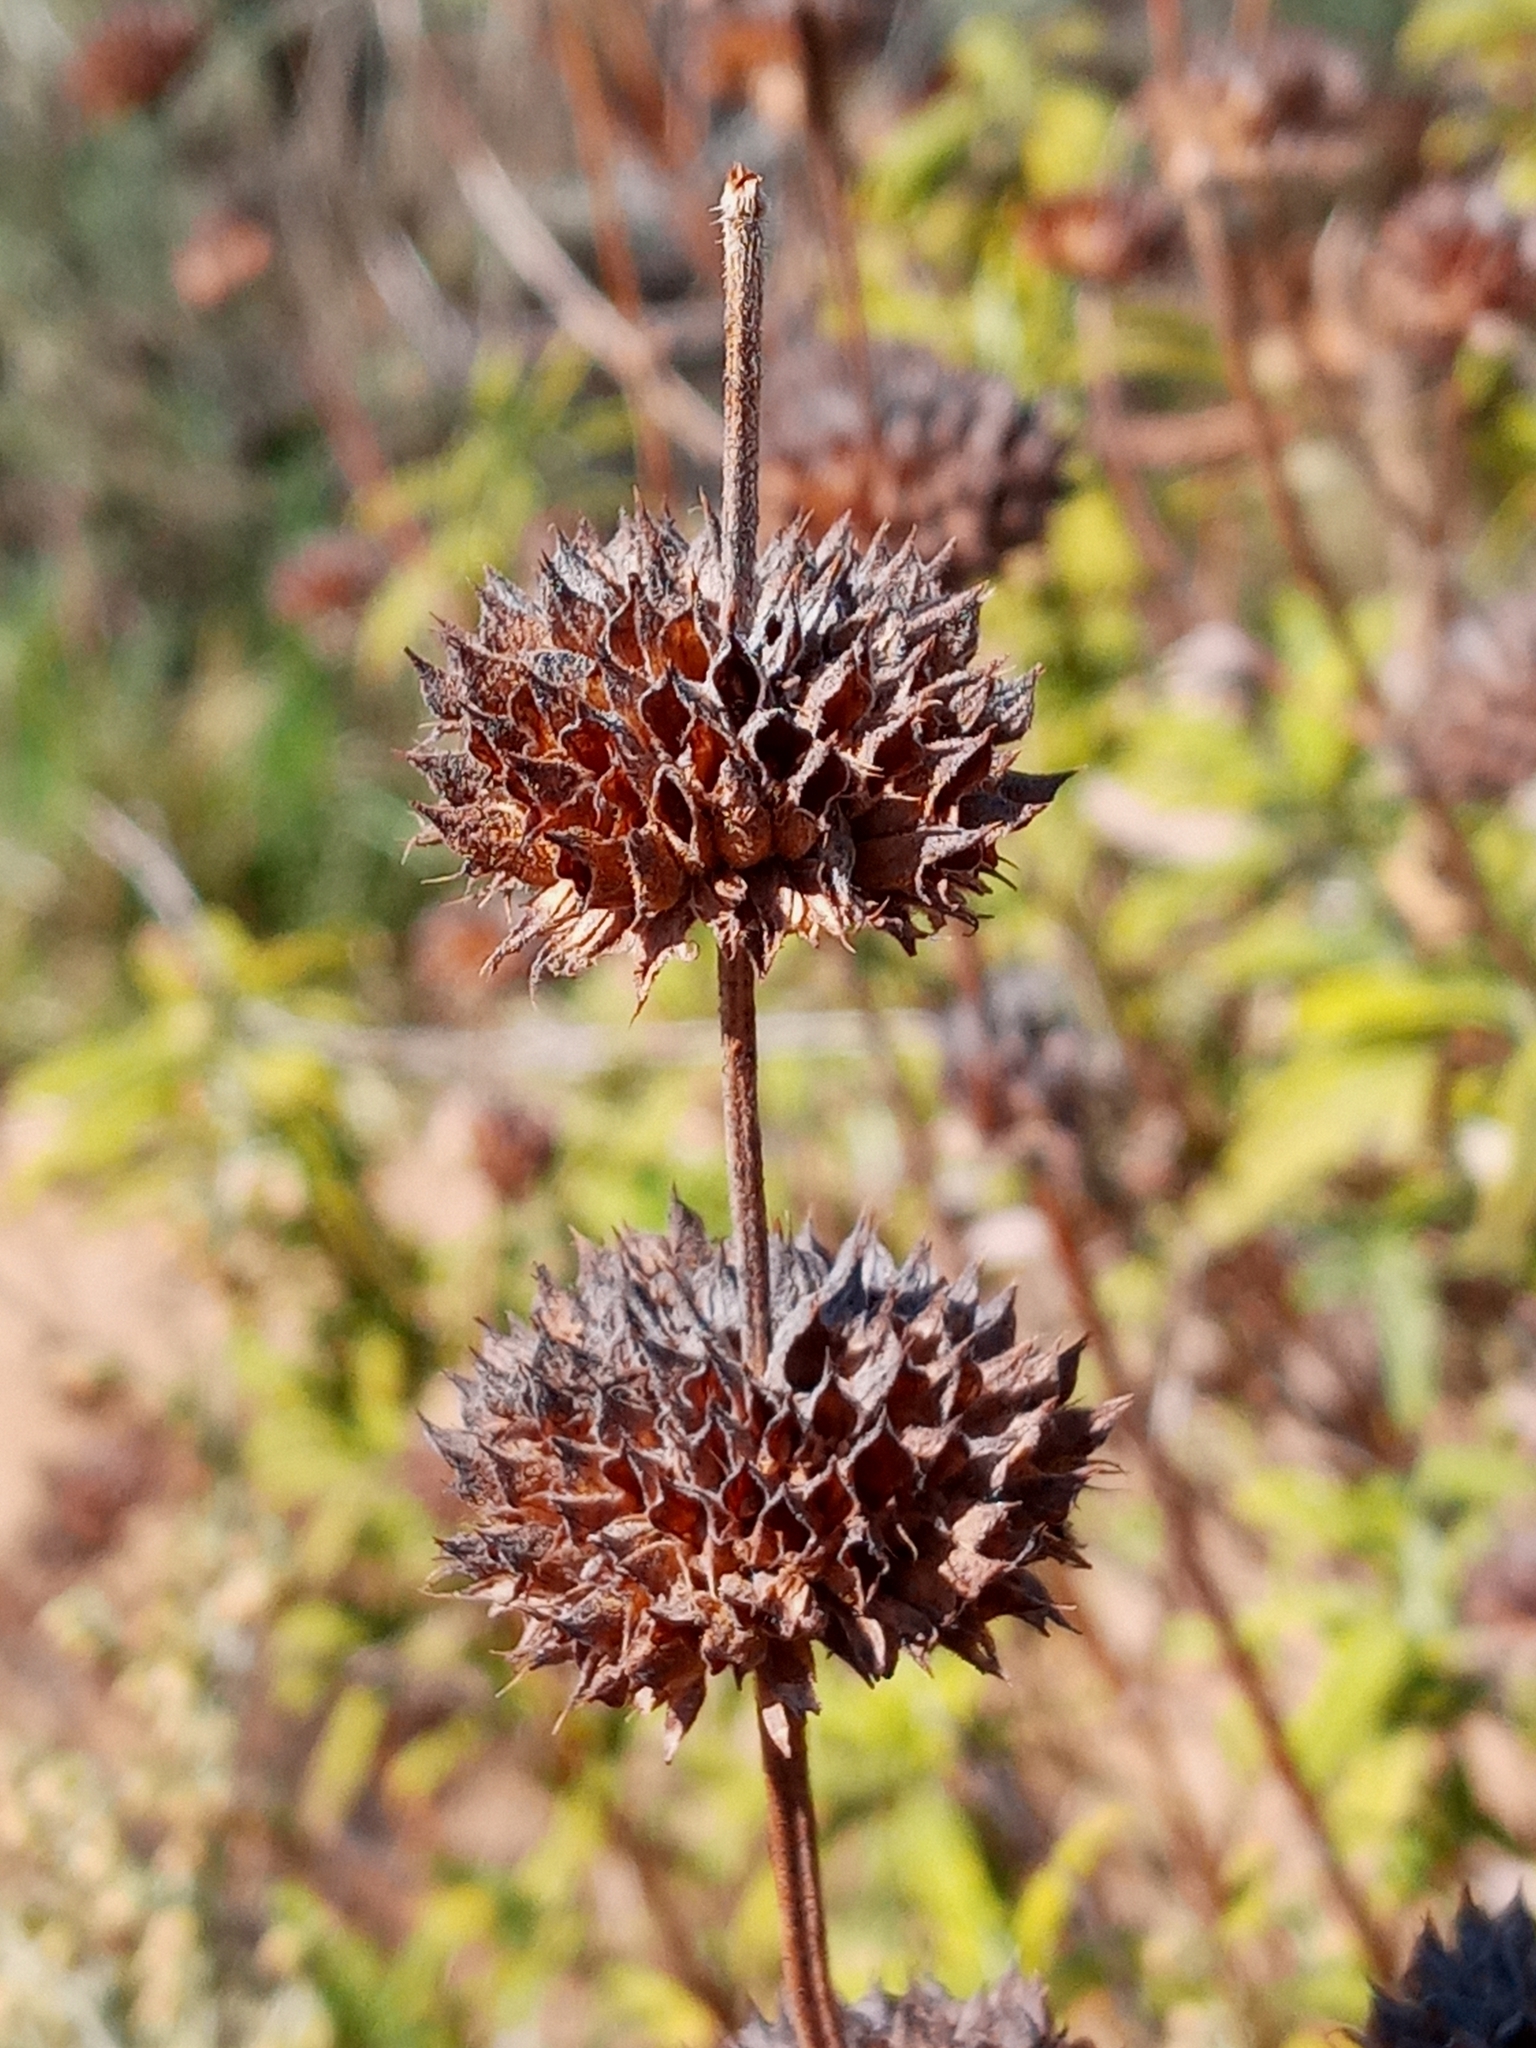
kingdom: Plantae
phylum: Tracheophyta
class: Magnoliopsida
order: Lamiales
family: Lamiaceae
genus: Salvia
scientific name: Salvia mellifera
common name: Black sage
